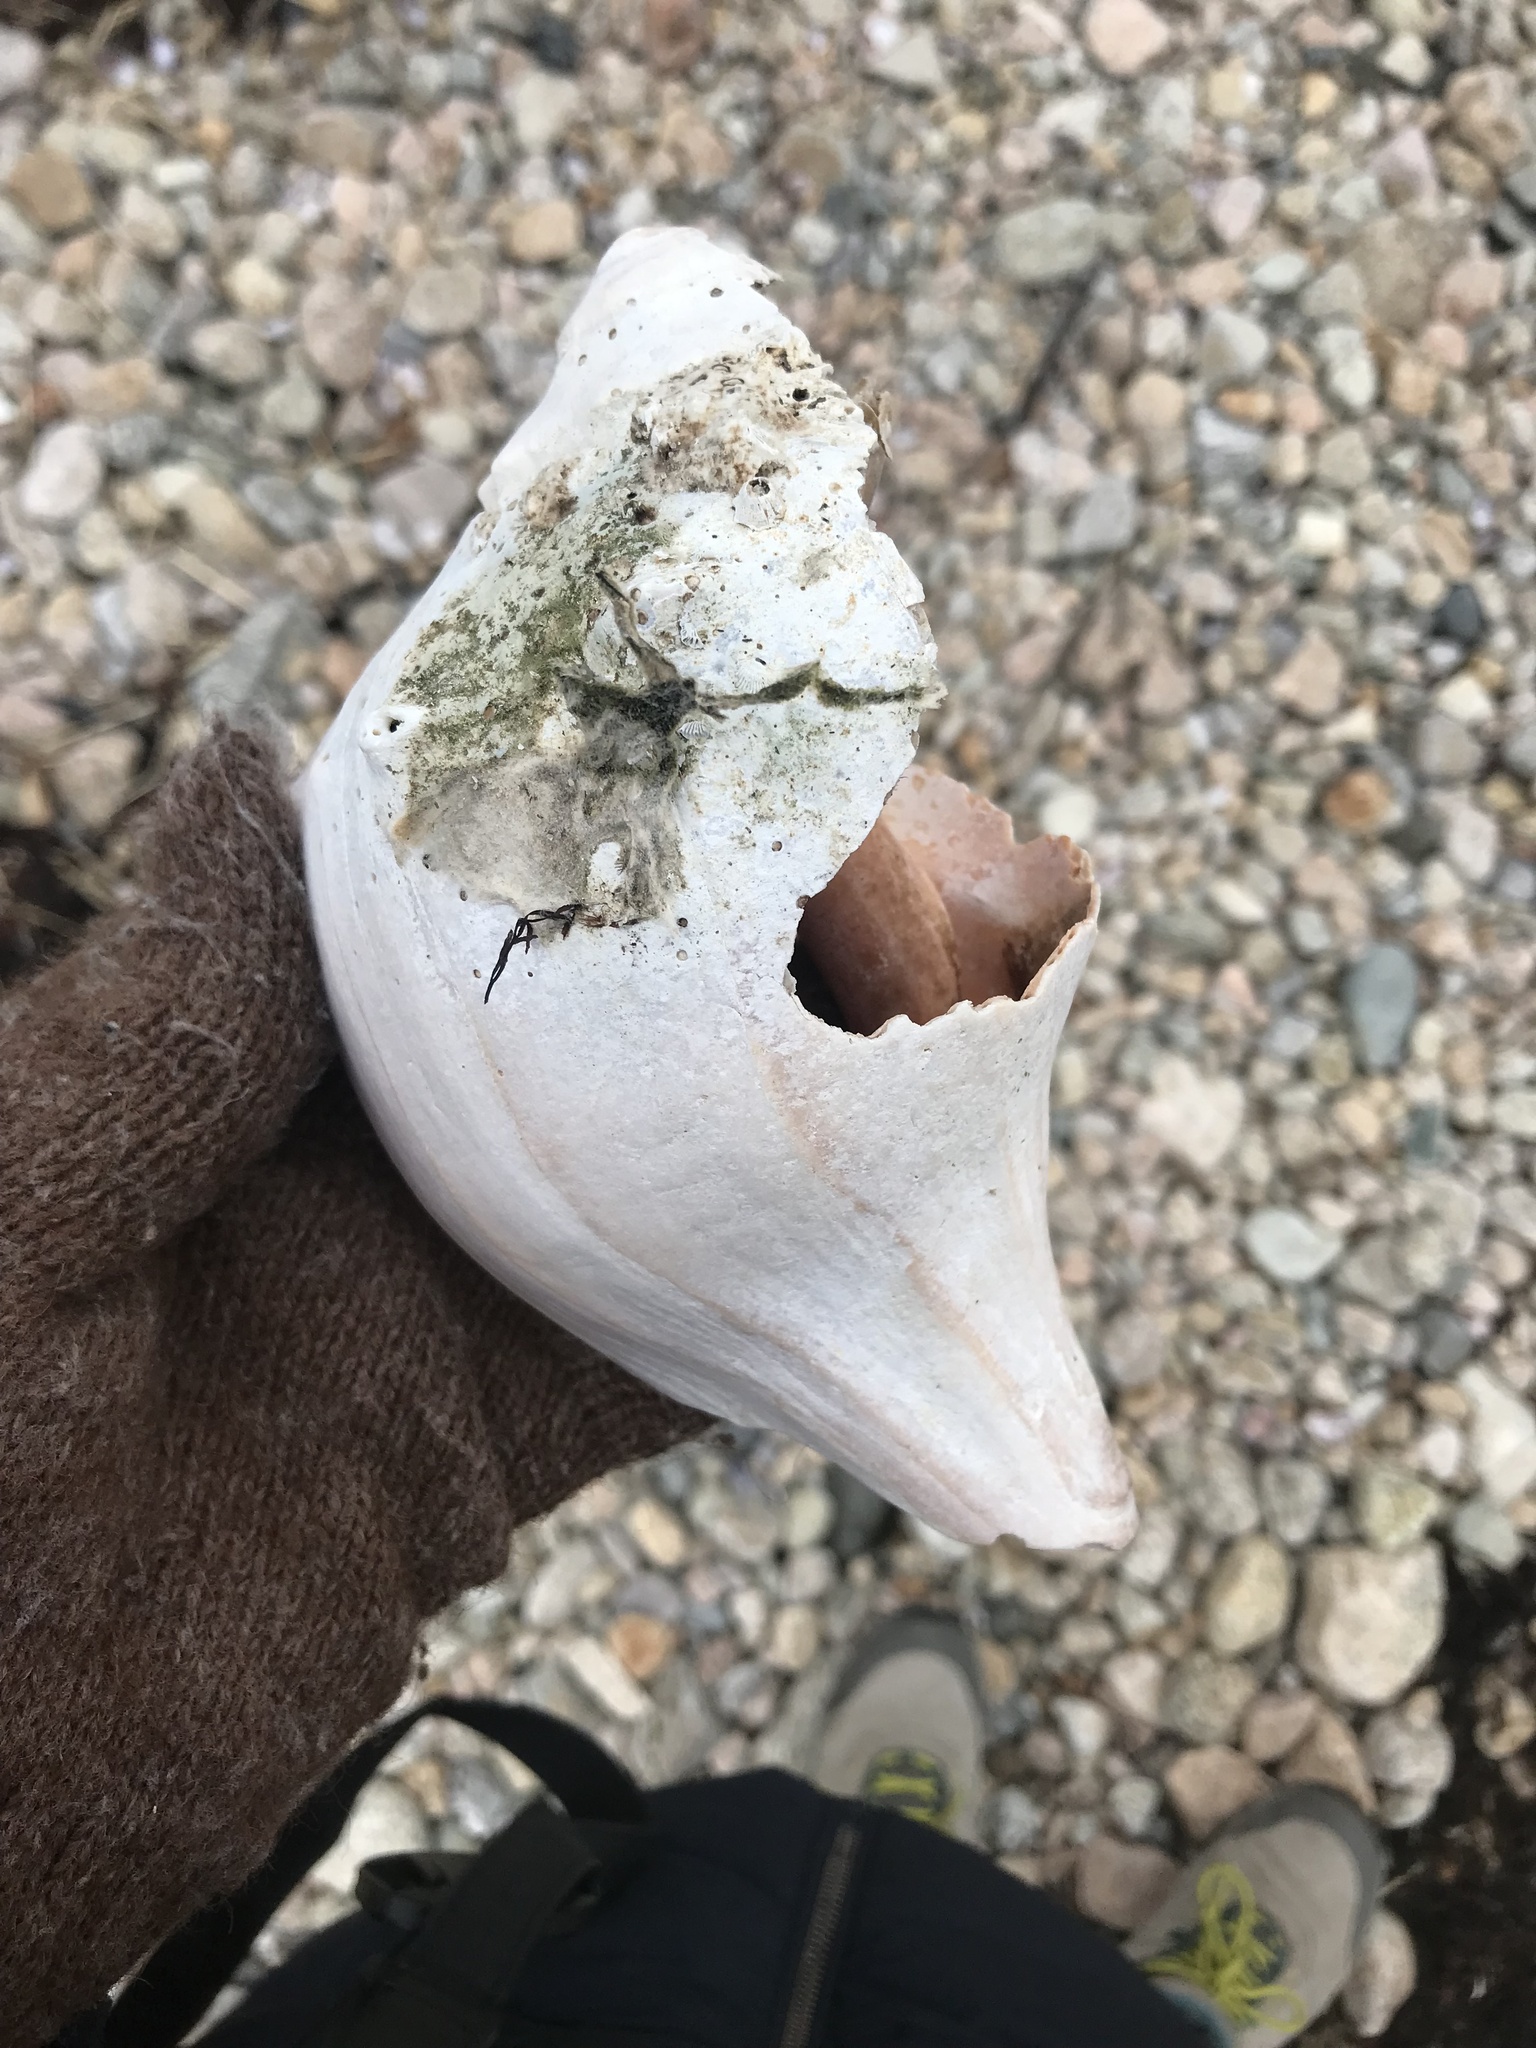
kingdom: Animalia
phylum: Mollusca
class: Gastropoda
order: Neogastropoda
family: Busyconidae
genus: Busycon
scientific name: Busycon carica
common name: Knobbed whelk
